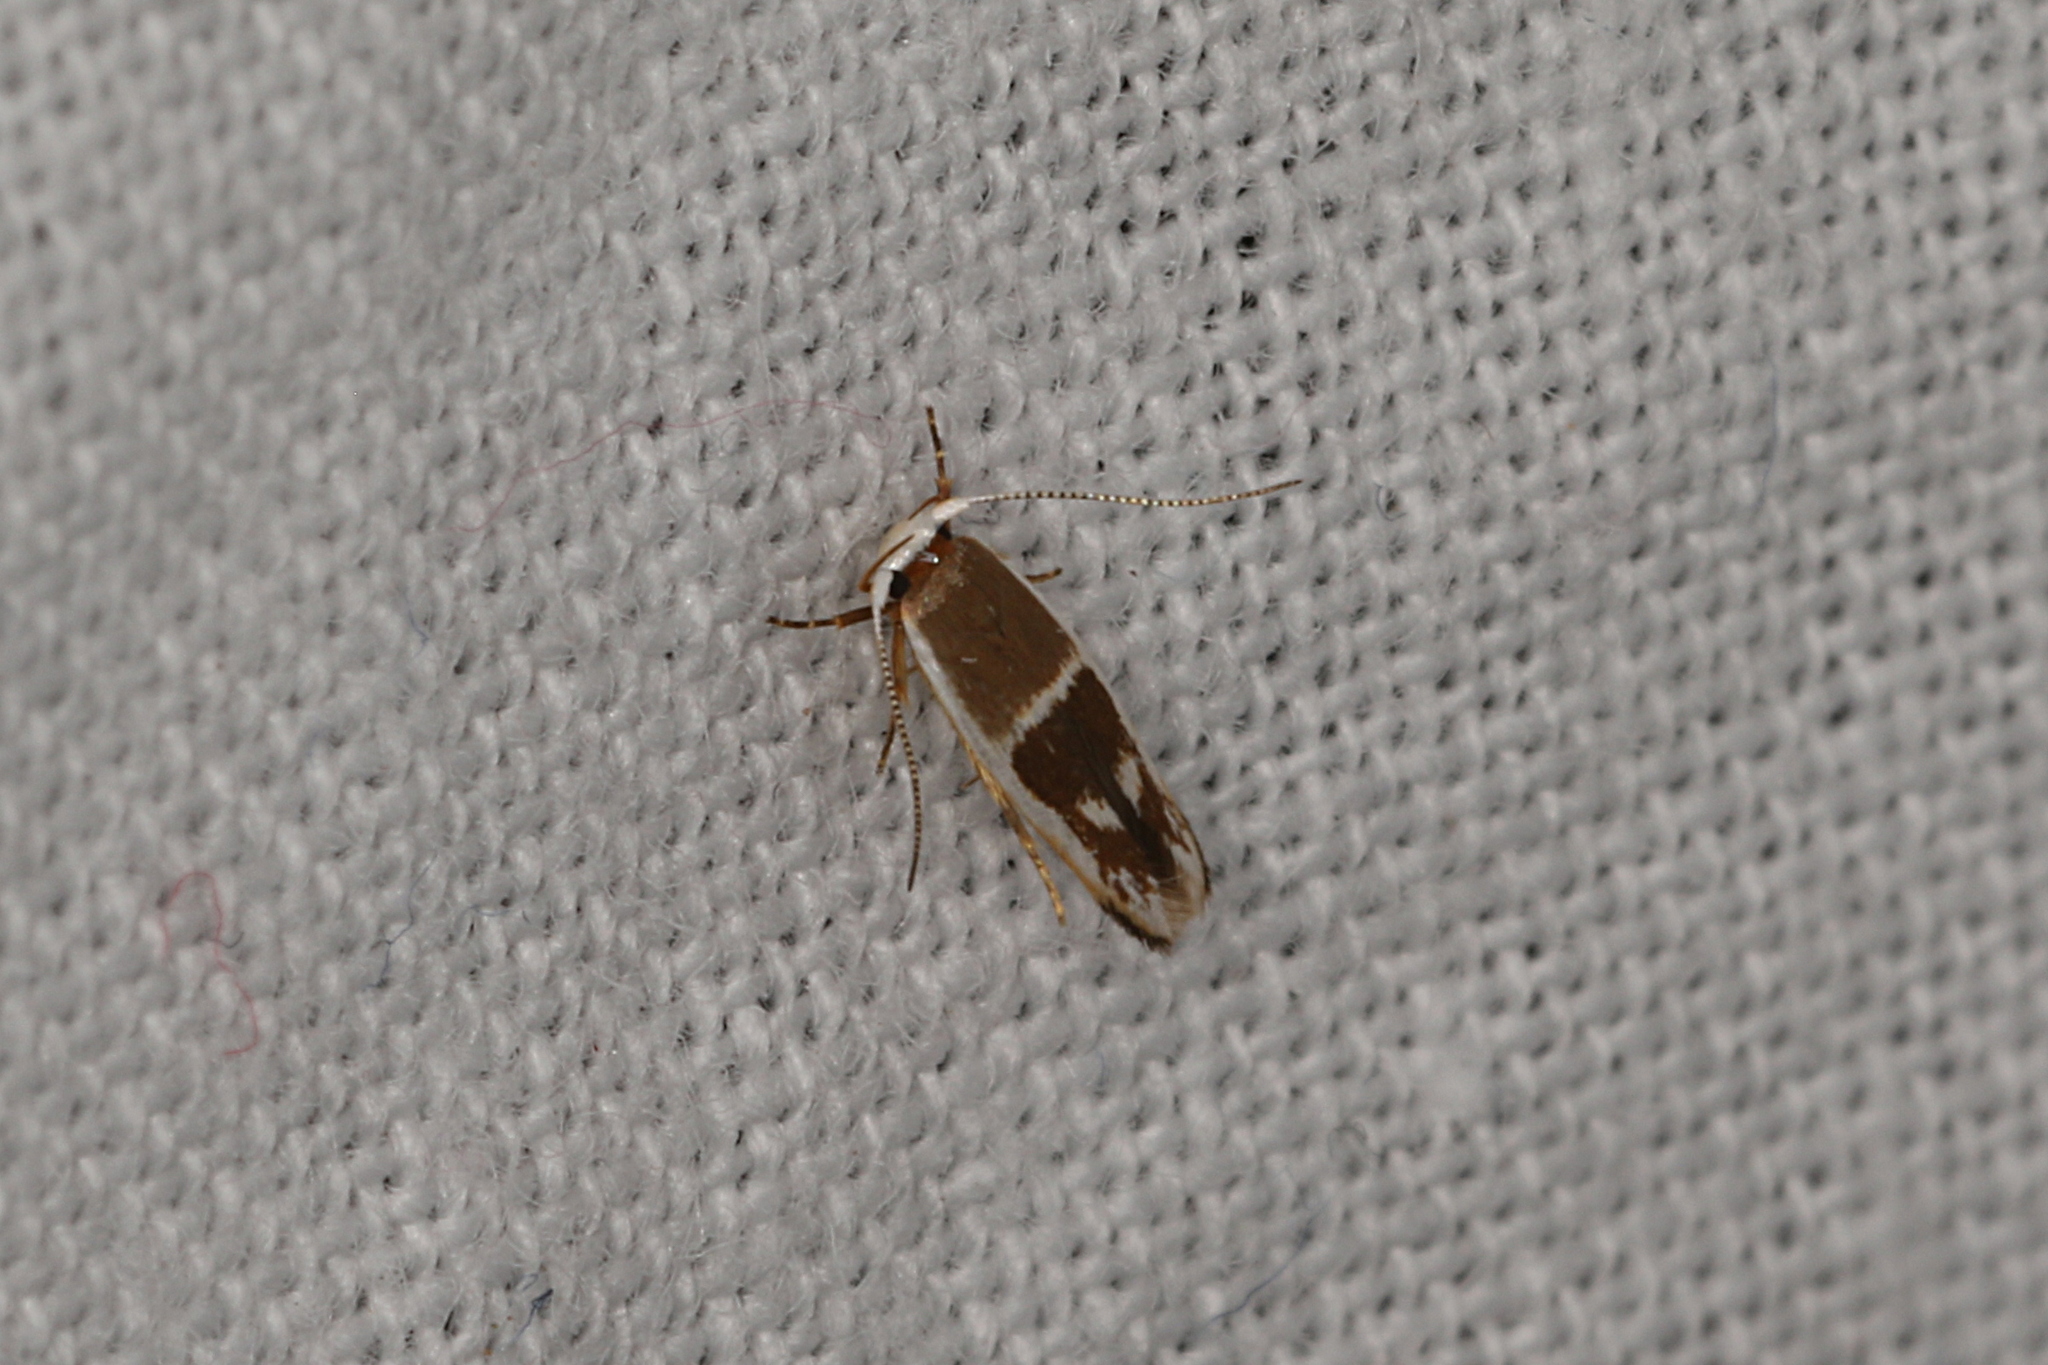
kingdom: Animalia
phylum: Arthropoda
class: Insecta
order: Lepidoptera
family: Stathmopodidae
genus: Stathmopoda
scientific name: Stathmopoda megathyma
